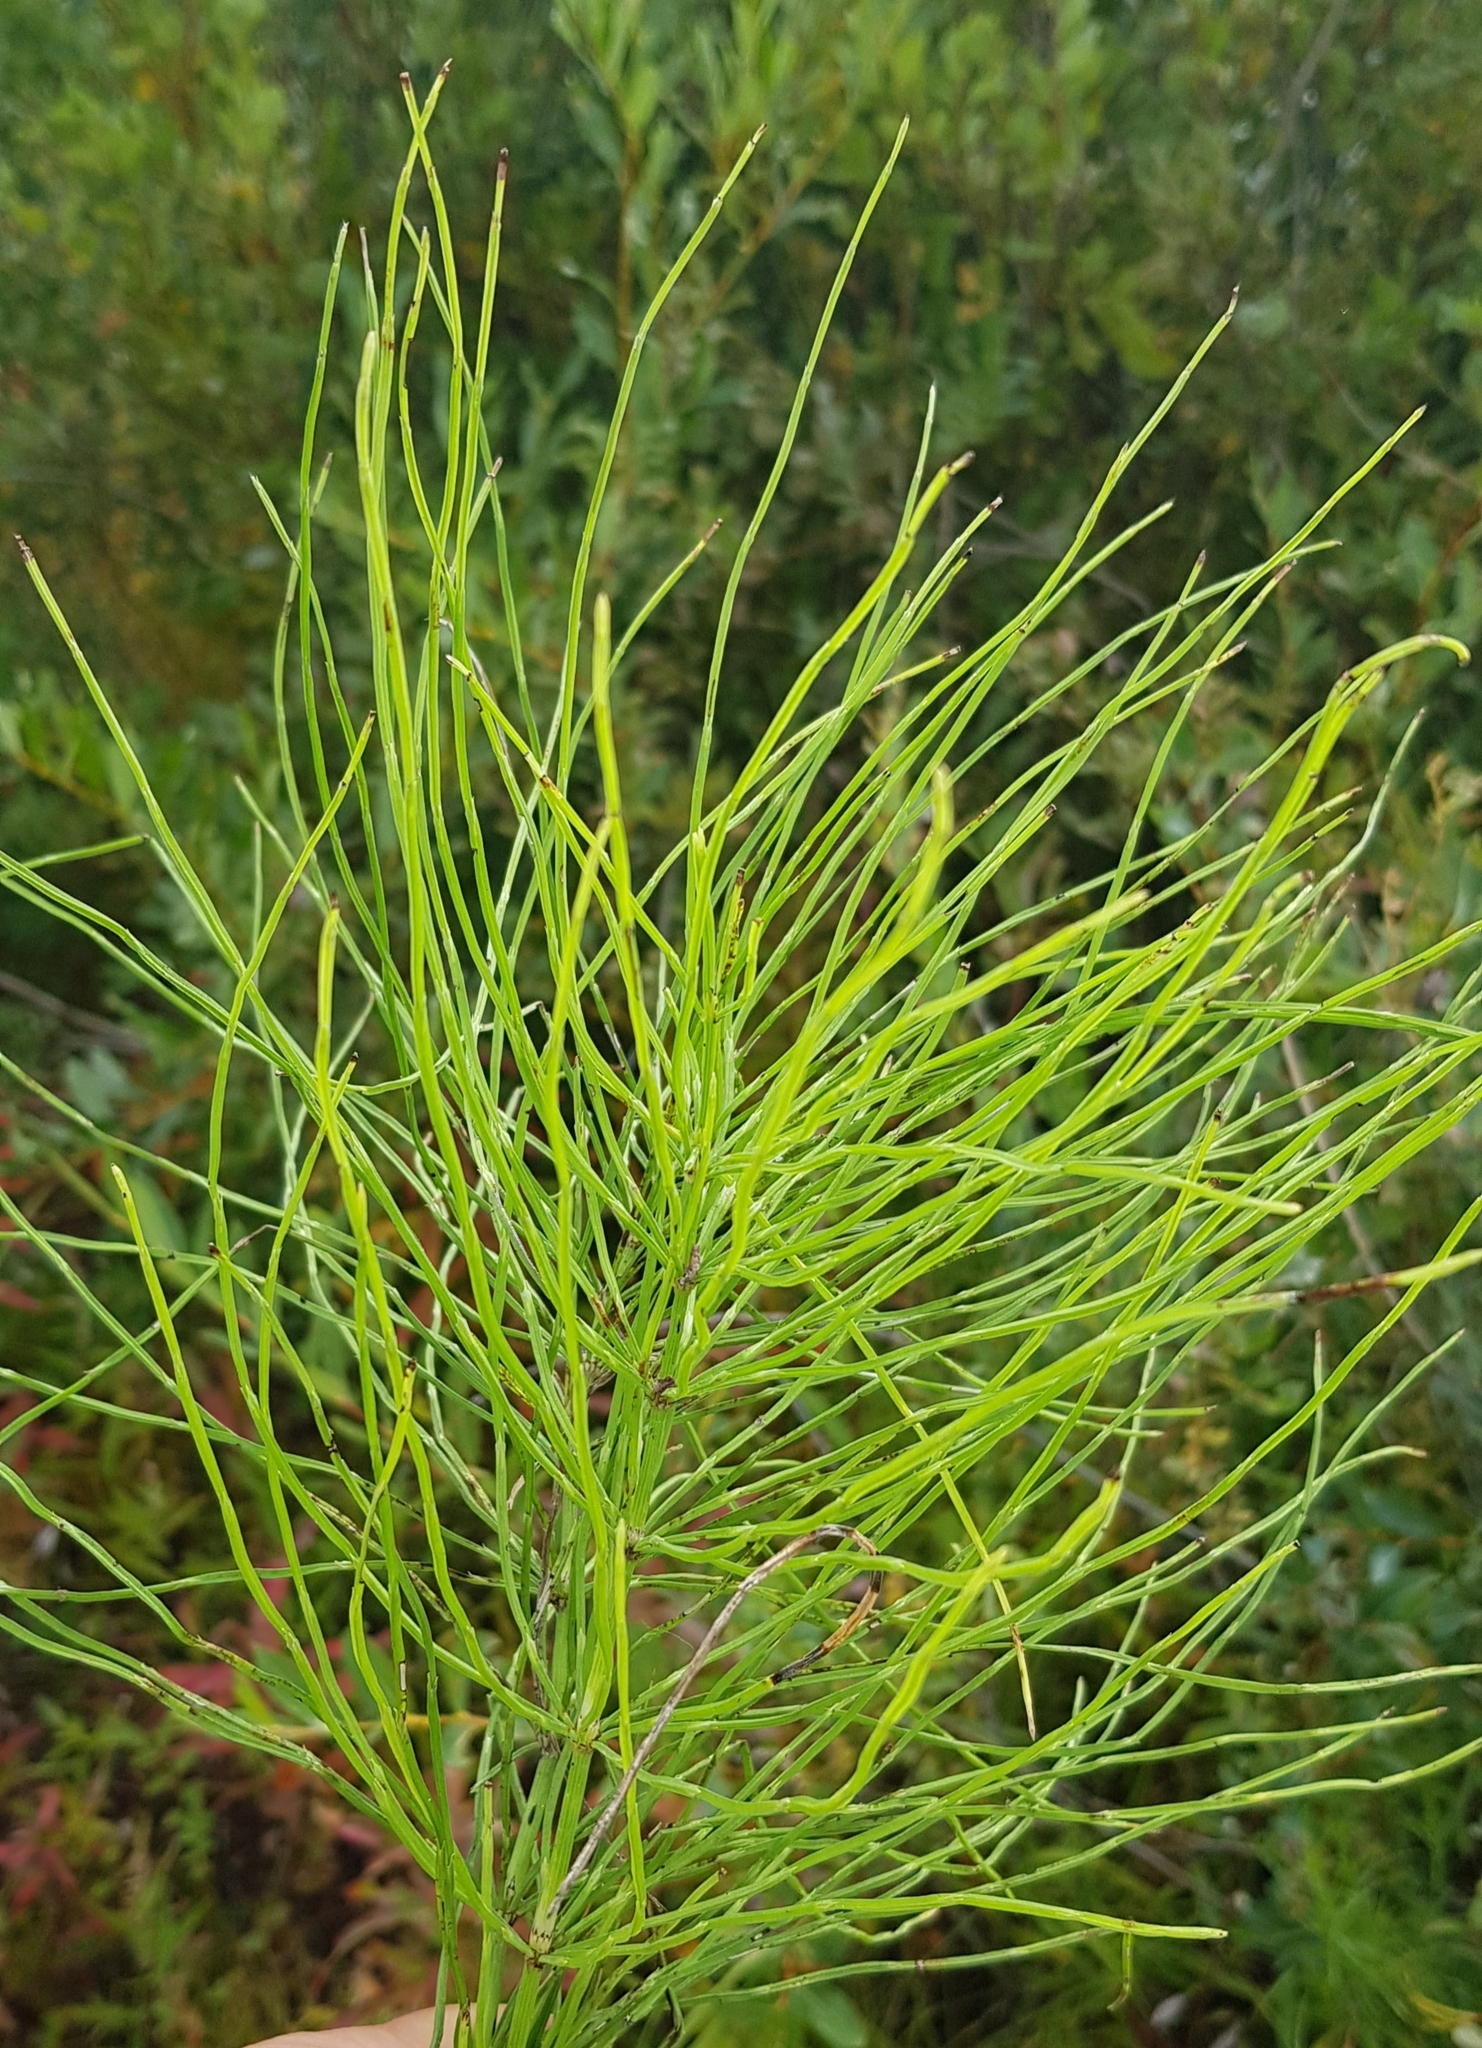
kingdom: Plantae
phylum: Tracheophyta
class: Polypodiopsida
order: Equisetales
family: Equisetaceae
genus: Equisetum
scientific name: Equisetum arvense
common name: Field horsetail
